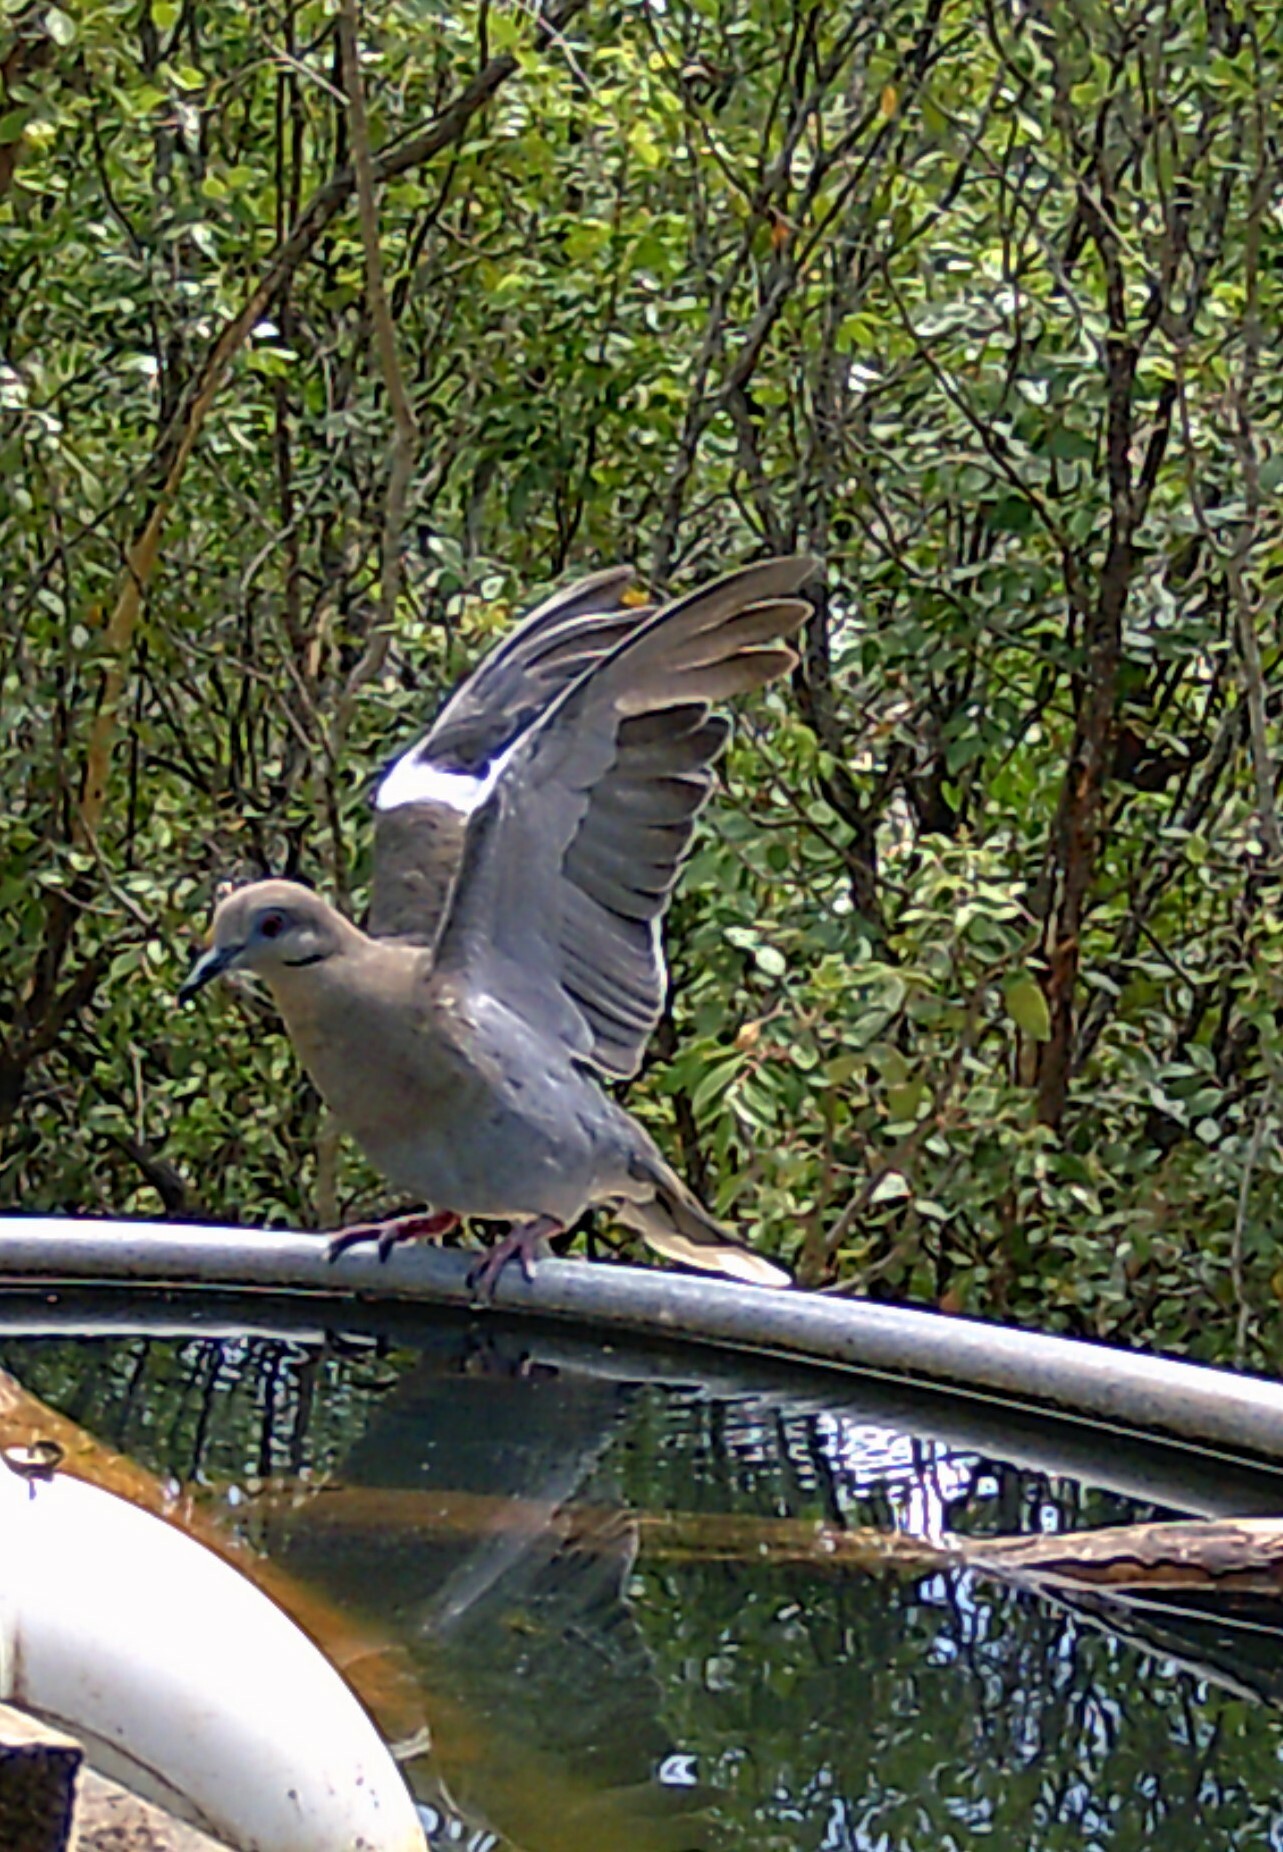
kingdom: Animalia
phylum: Chordata
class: Aves
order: Columbiformes
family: Columbidae
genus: Zenaida
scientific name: Zenaida asiatica
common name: White-winged dove
